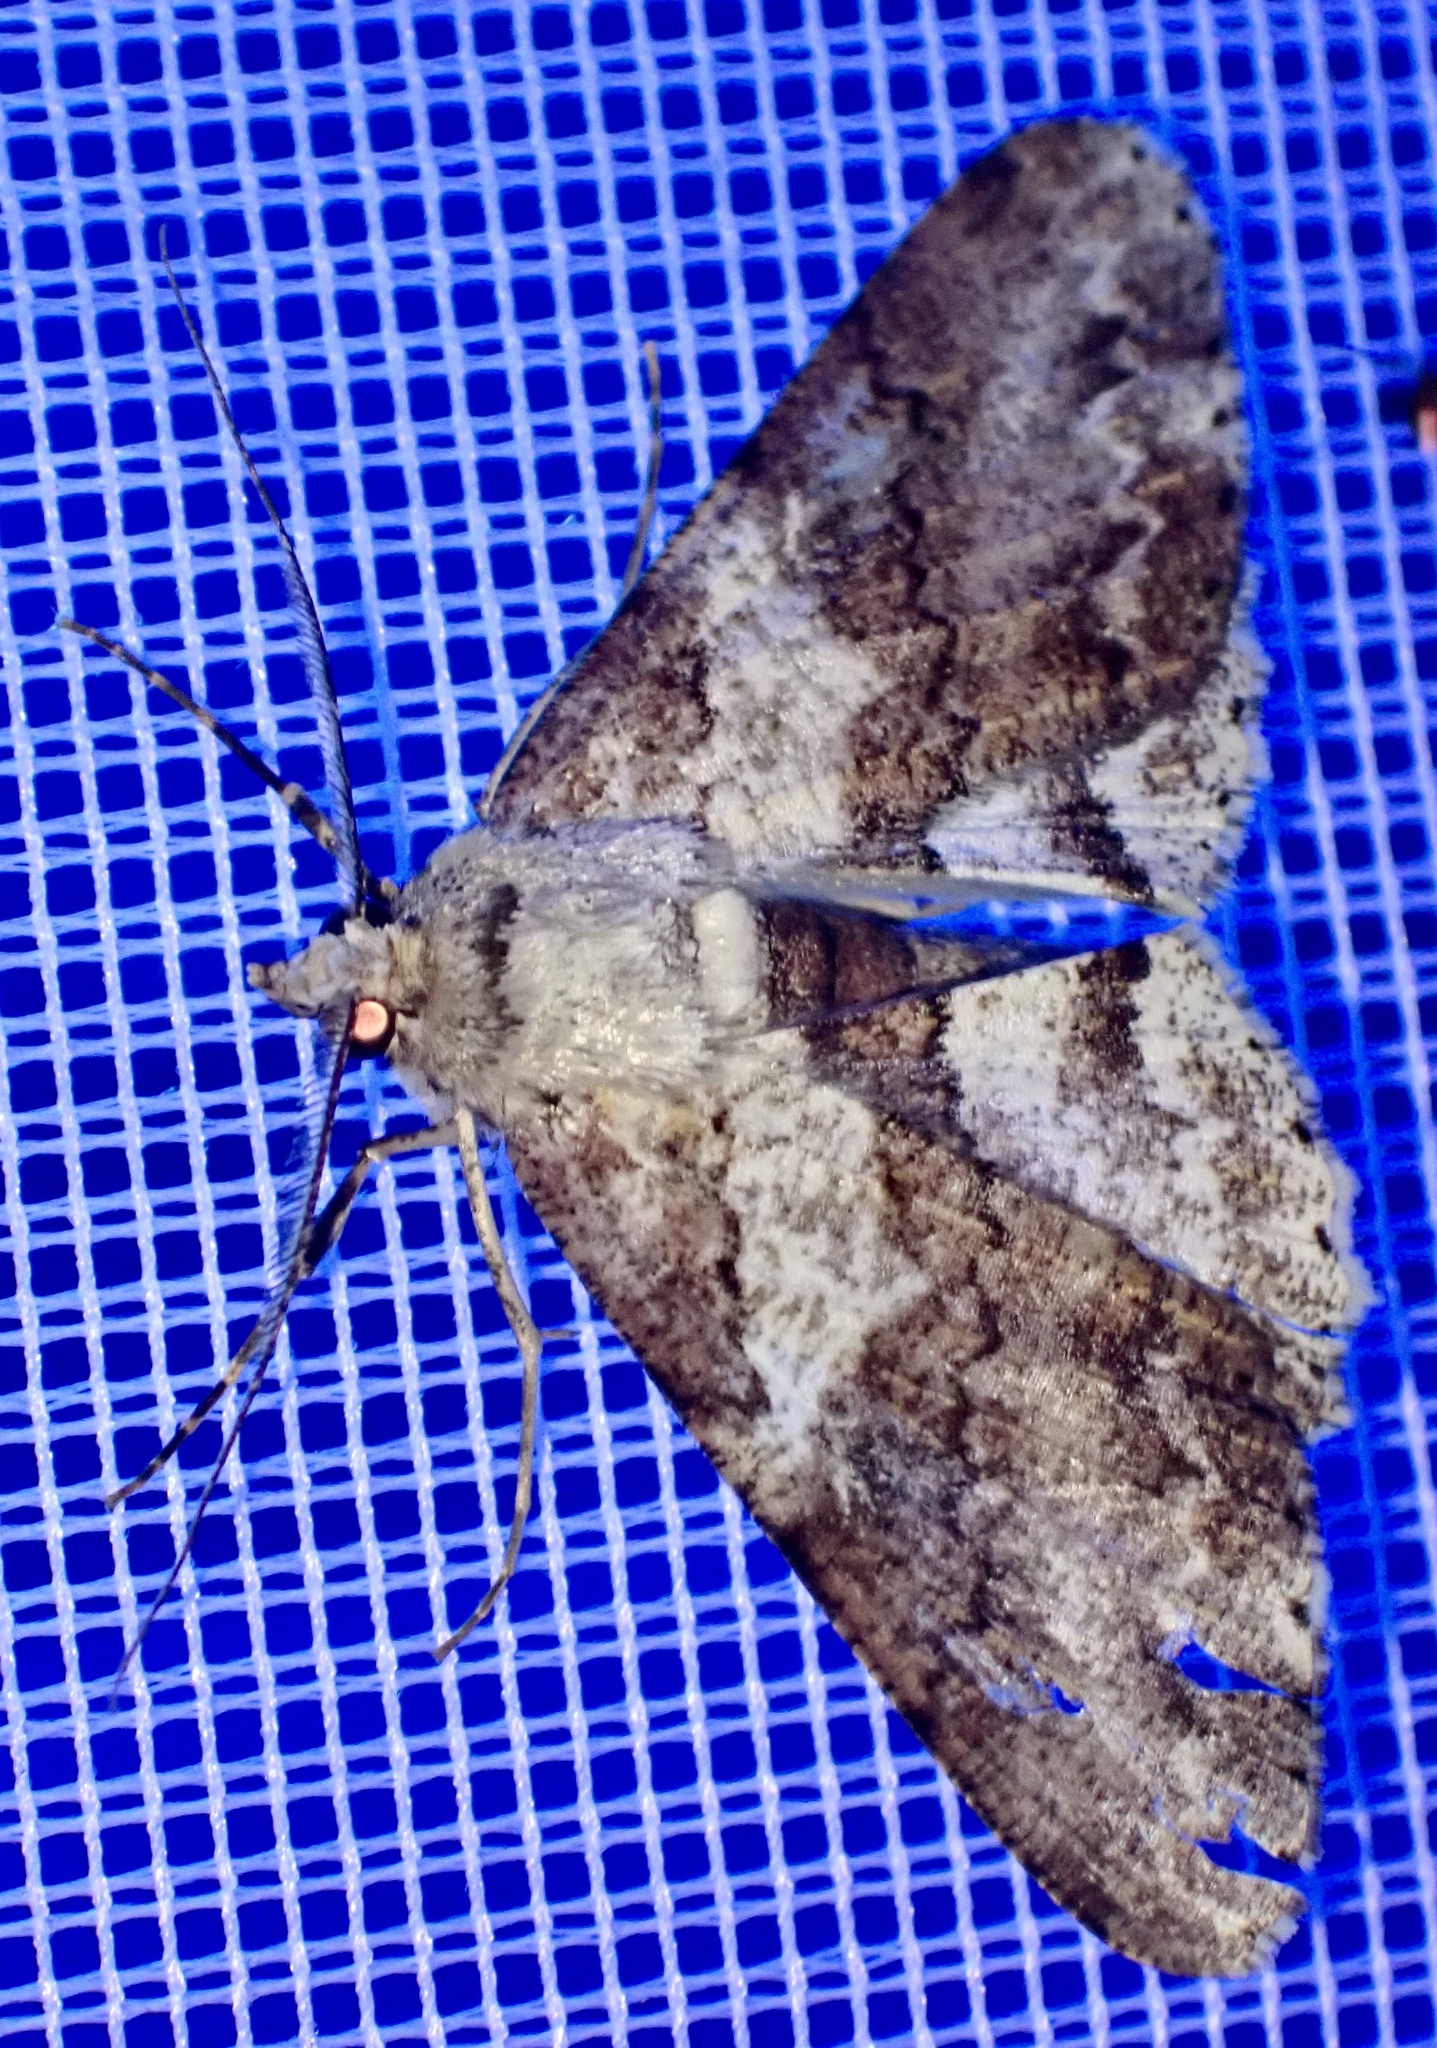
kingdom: Animalia
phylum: Arthropoda
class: Insecta
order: Lepidoptera
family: Geometridae
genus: Cleora
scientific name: Cleora repetita
